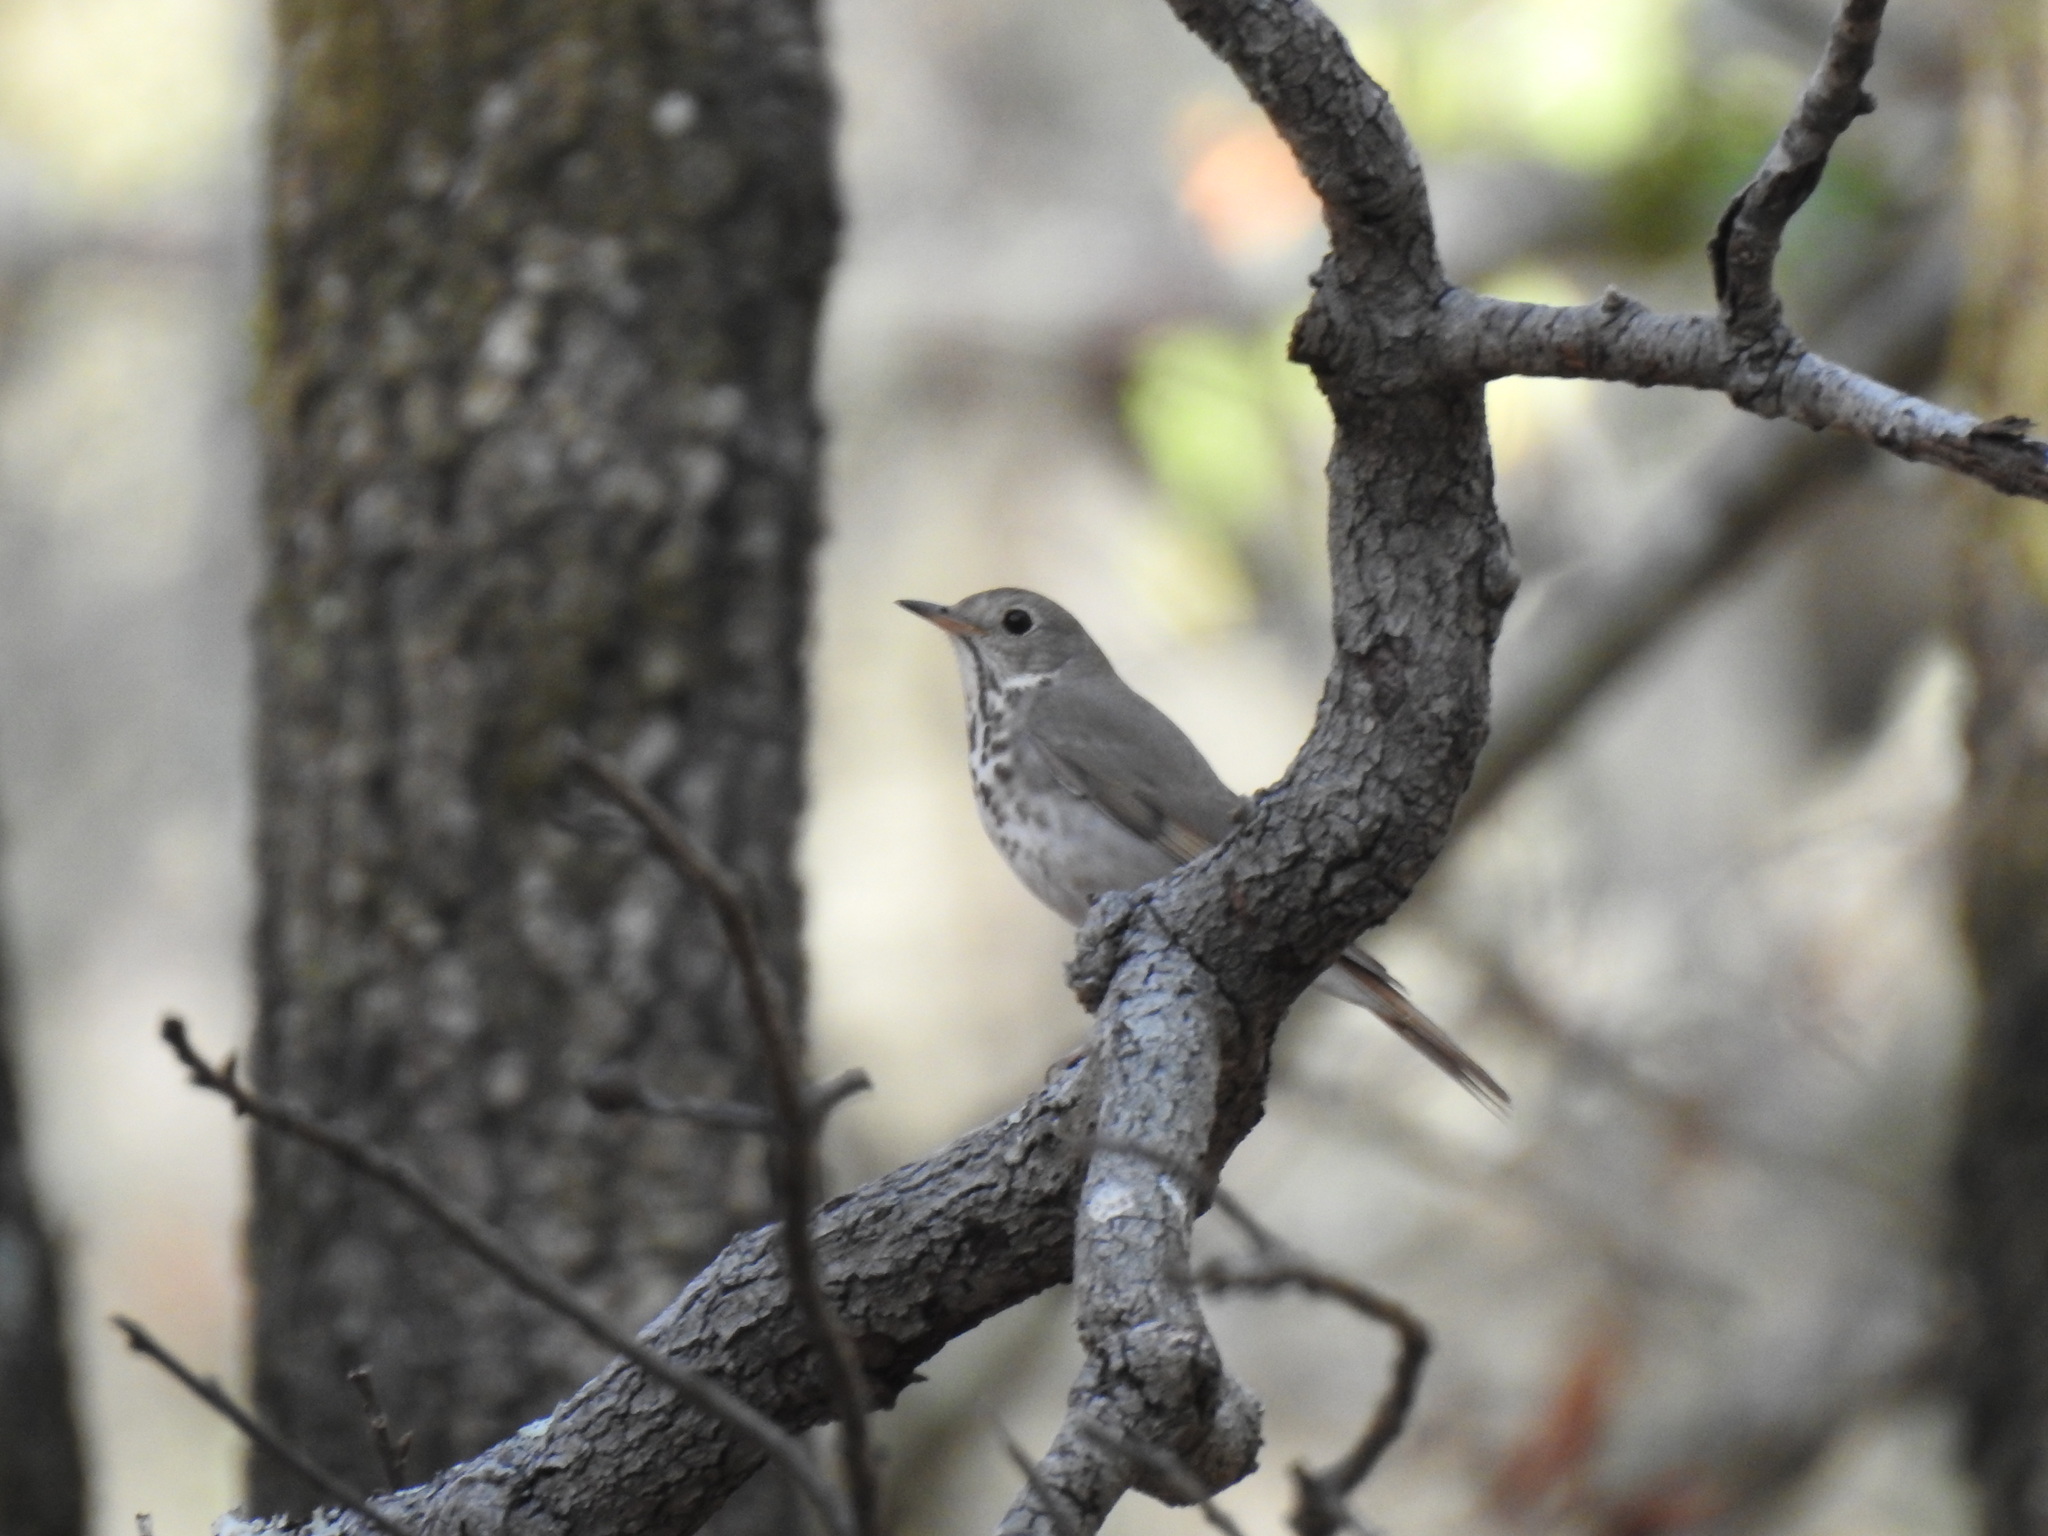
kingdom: Animalia
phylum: Chordata
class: Aves
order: Passeriformes
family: Turdidae
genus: Catharus
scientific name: Catharus guttatus
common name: Hermit thrush
